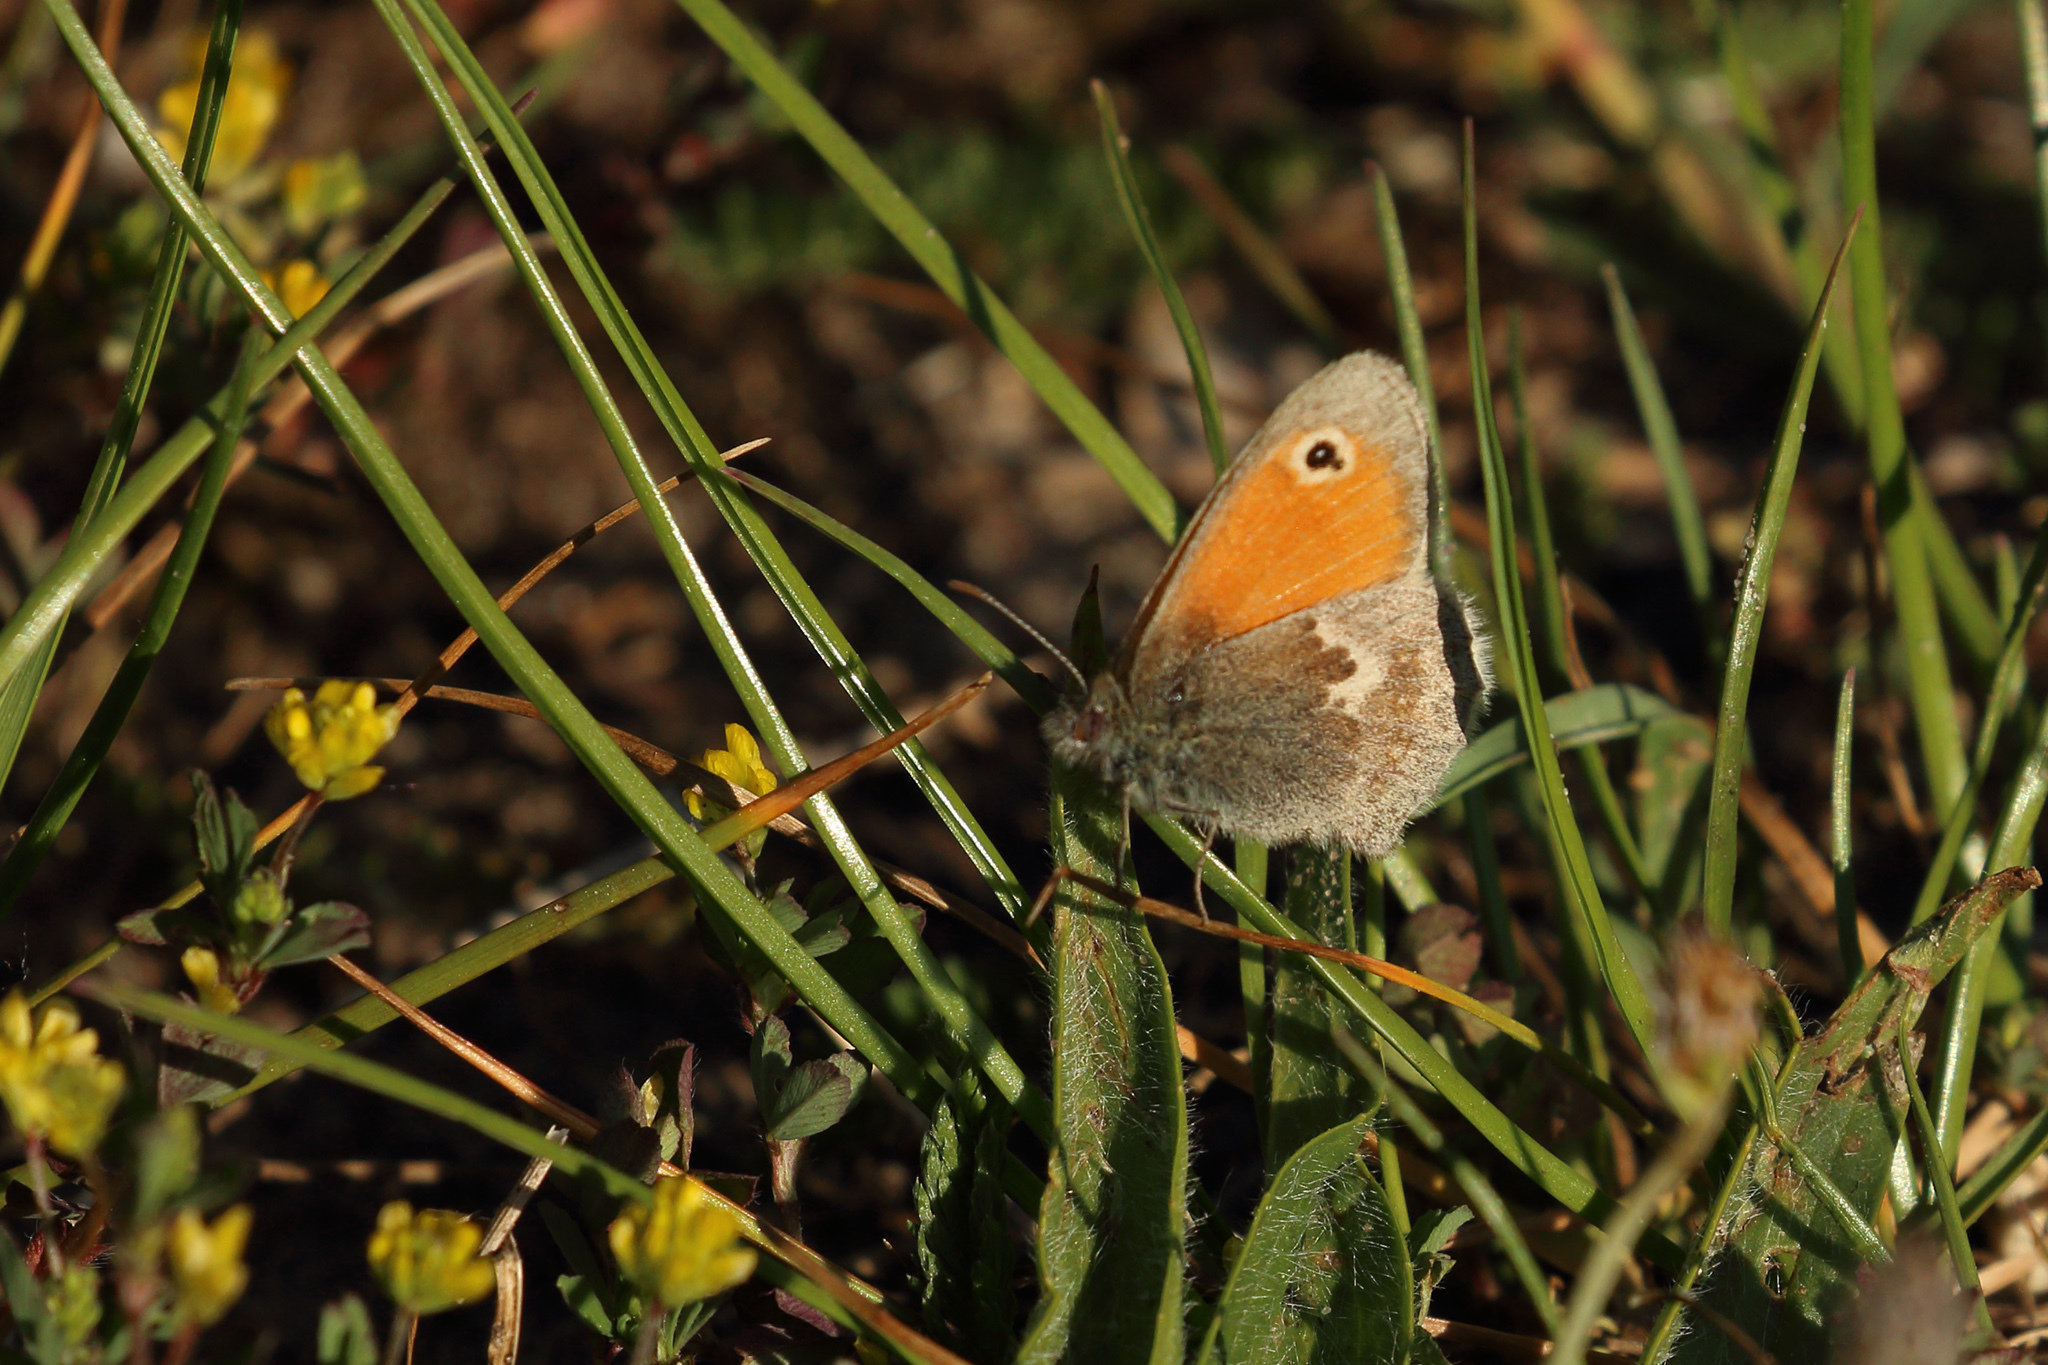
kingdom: Animalia
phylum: Arthropoda
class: Insecta
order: Lepidoptera
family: Nymphalidae
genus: Coenonympha
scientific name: Coenonympha pamphilus
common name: Small heath
